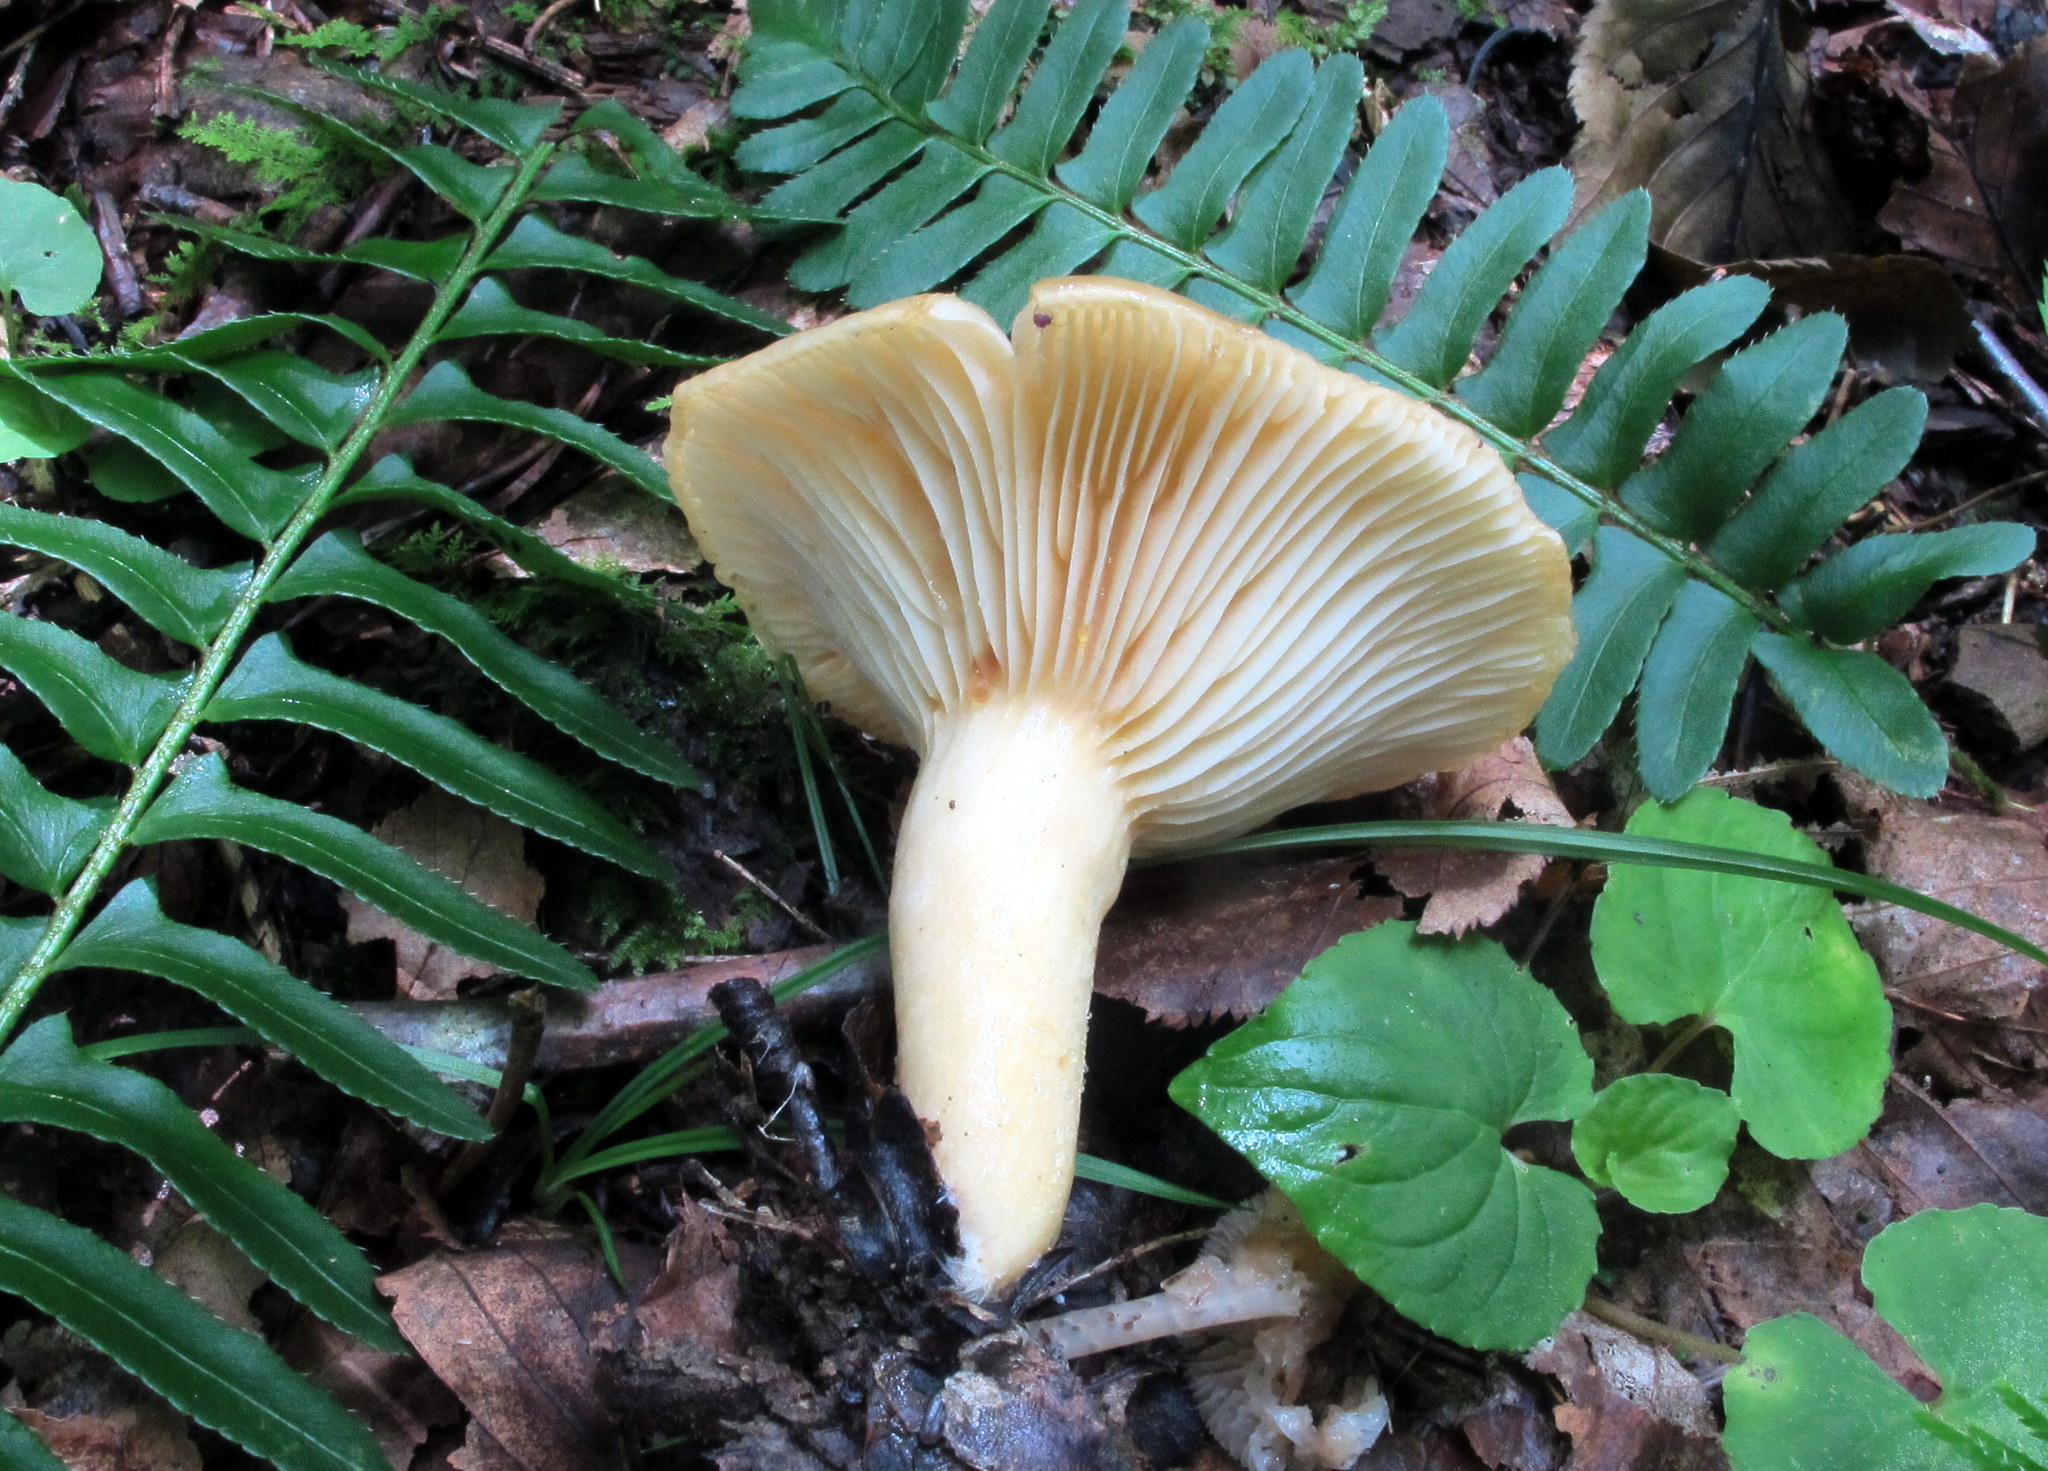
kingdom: Fungi
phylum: Basidiomycota
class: Agaricomycetes
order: Russulales
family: Russulaceae
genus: Lactarius
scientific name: Lactarius croceus
